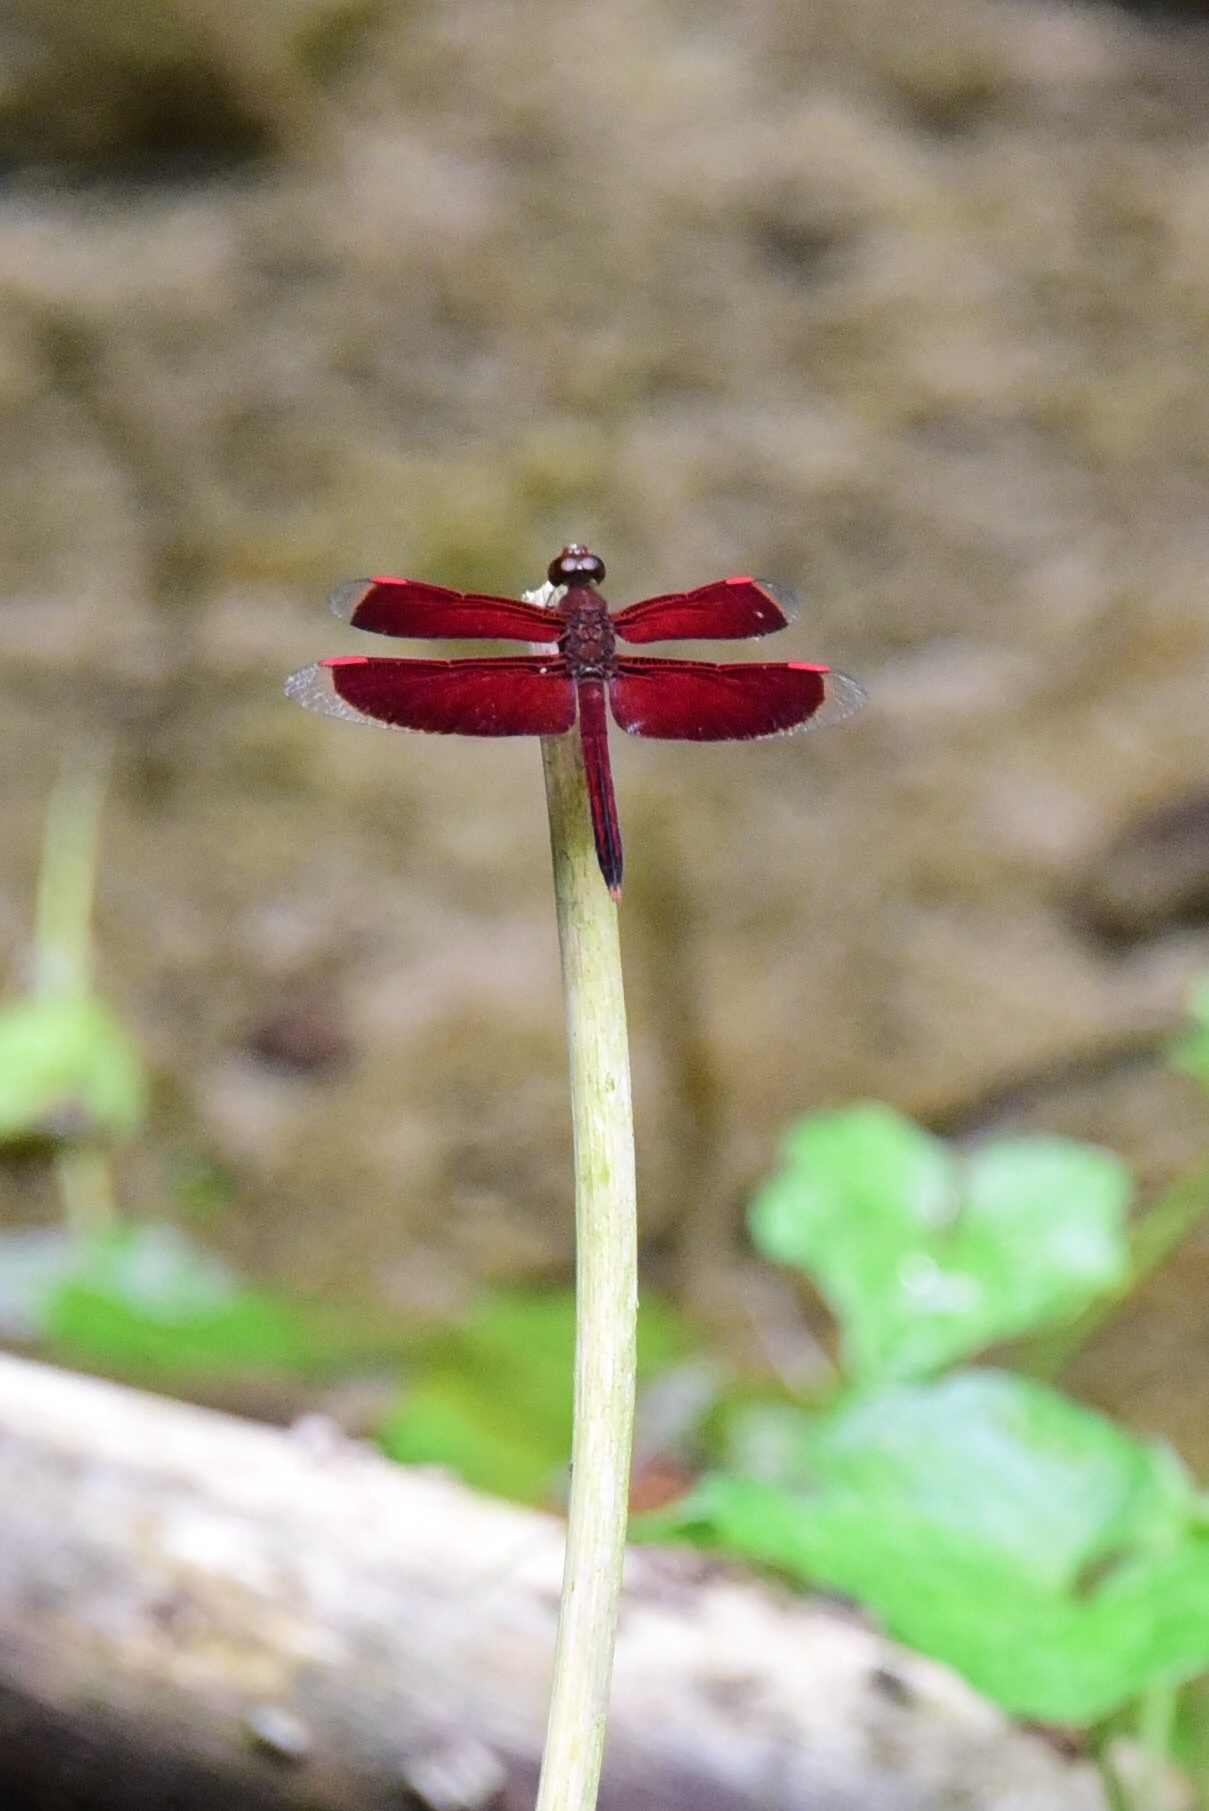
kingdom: Animalia
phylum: Arthropoda
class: Insecta
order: Odonata
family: Libellulidae
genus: Neurothemis
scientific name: Neurothemis stigmatizans
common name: Painted grasshawk
